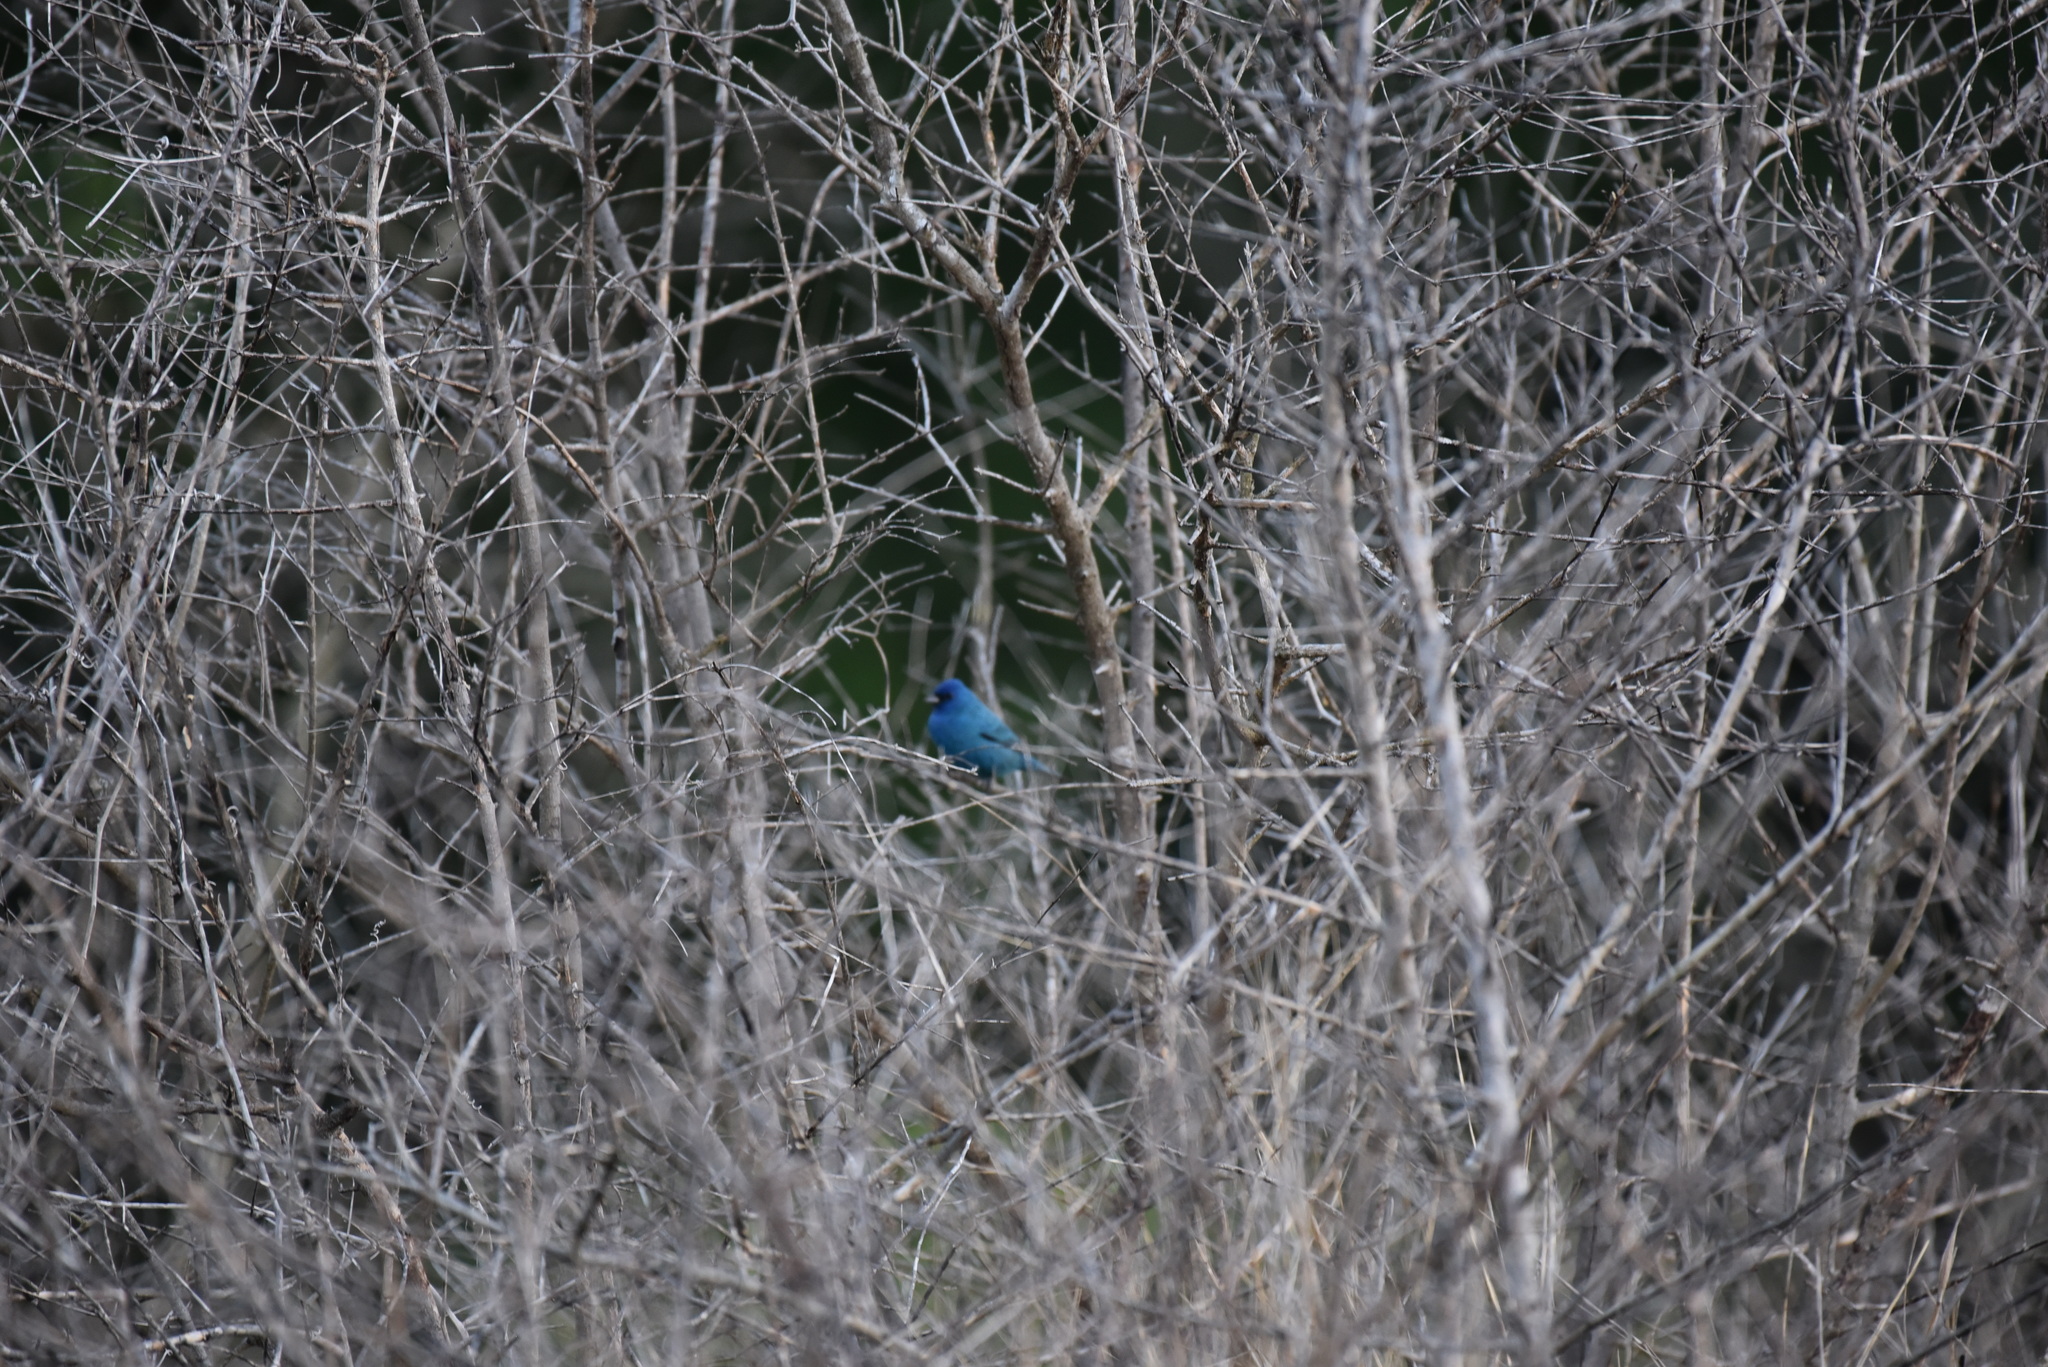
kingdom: Animalia
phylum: Chordata
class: Aves
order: Passeriformes
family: Cardinalidae
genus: Passerina
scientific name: Passerina cyanea
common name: Indigo bunting
